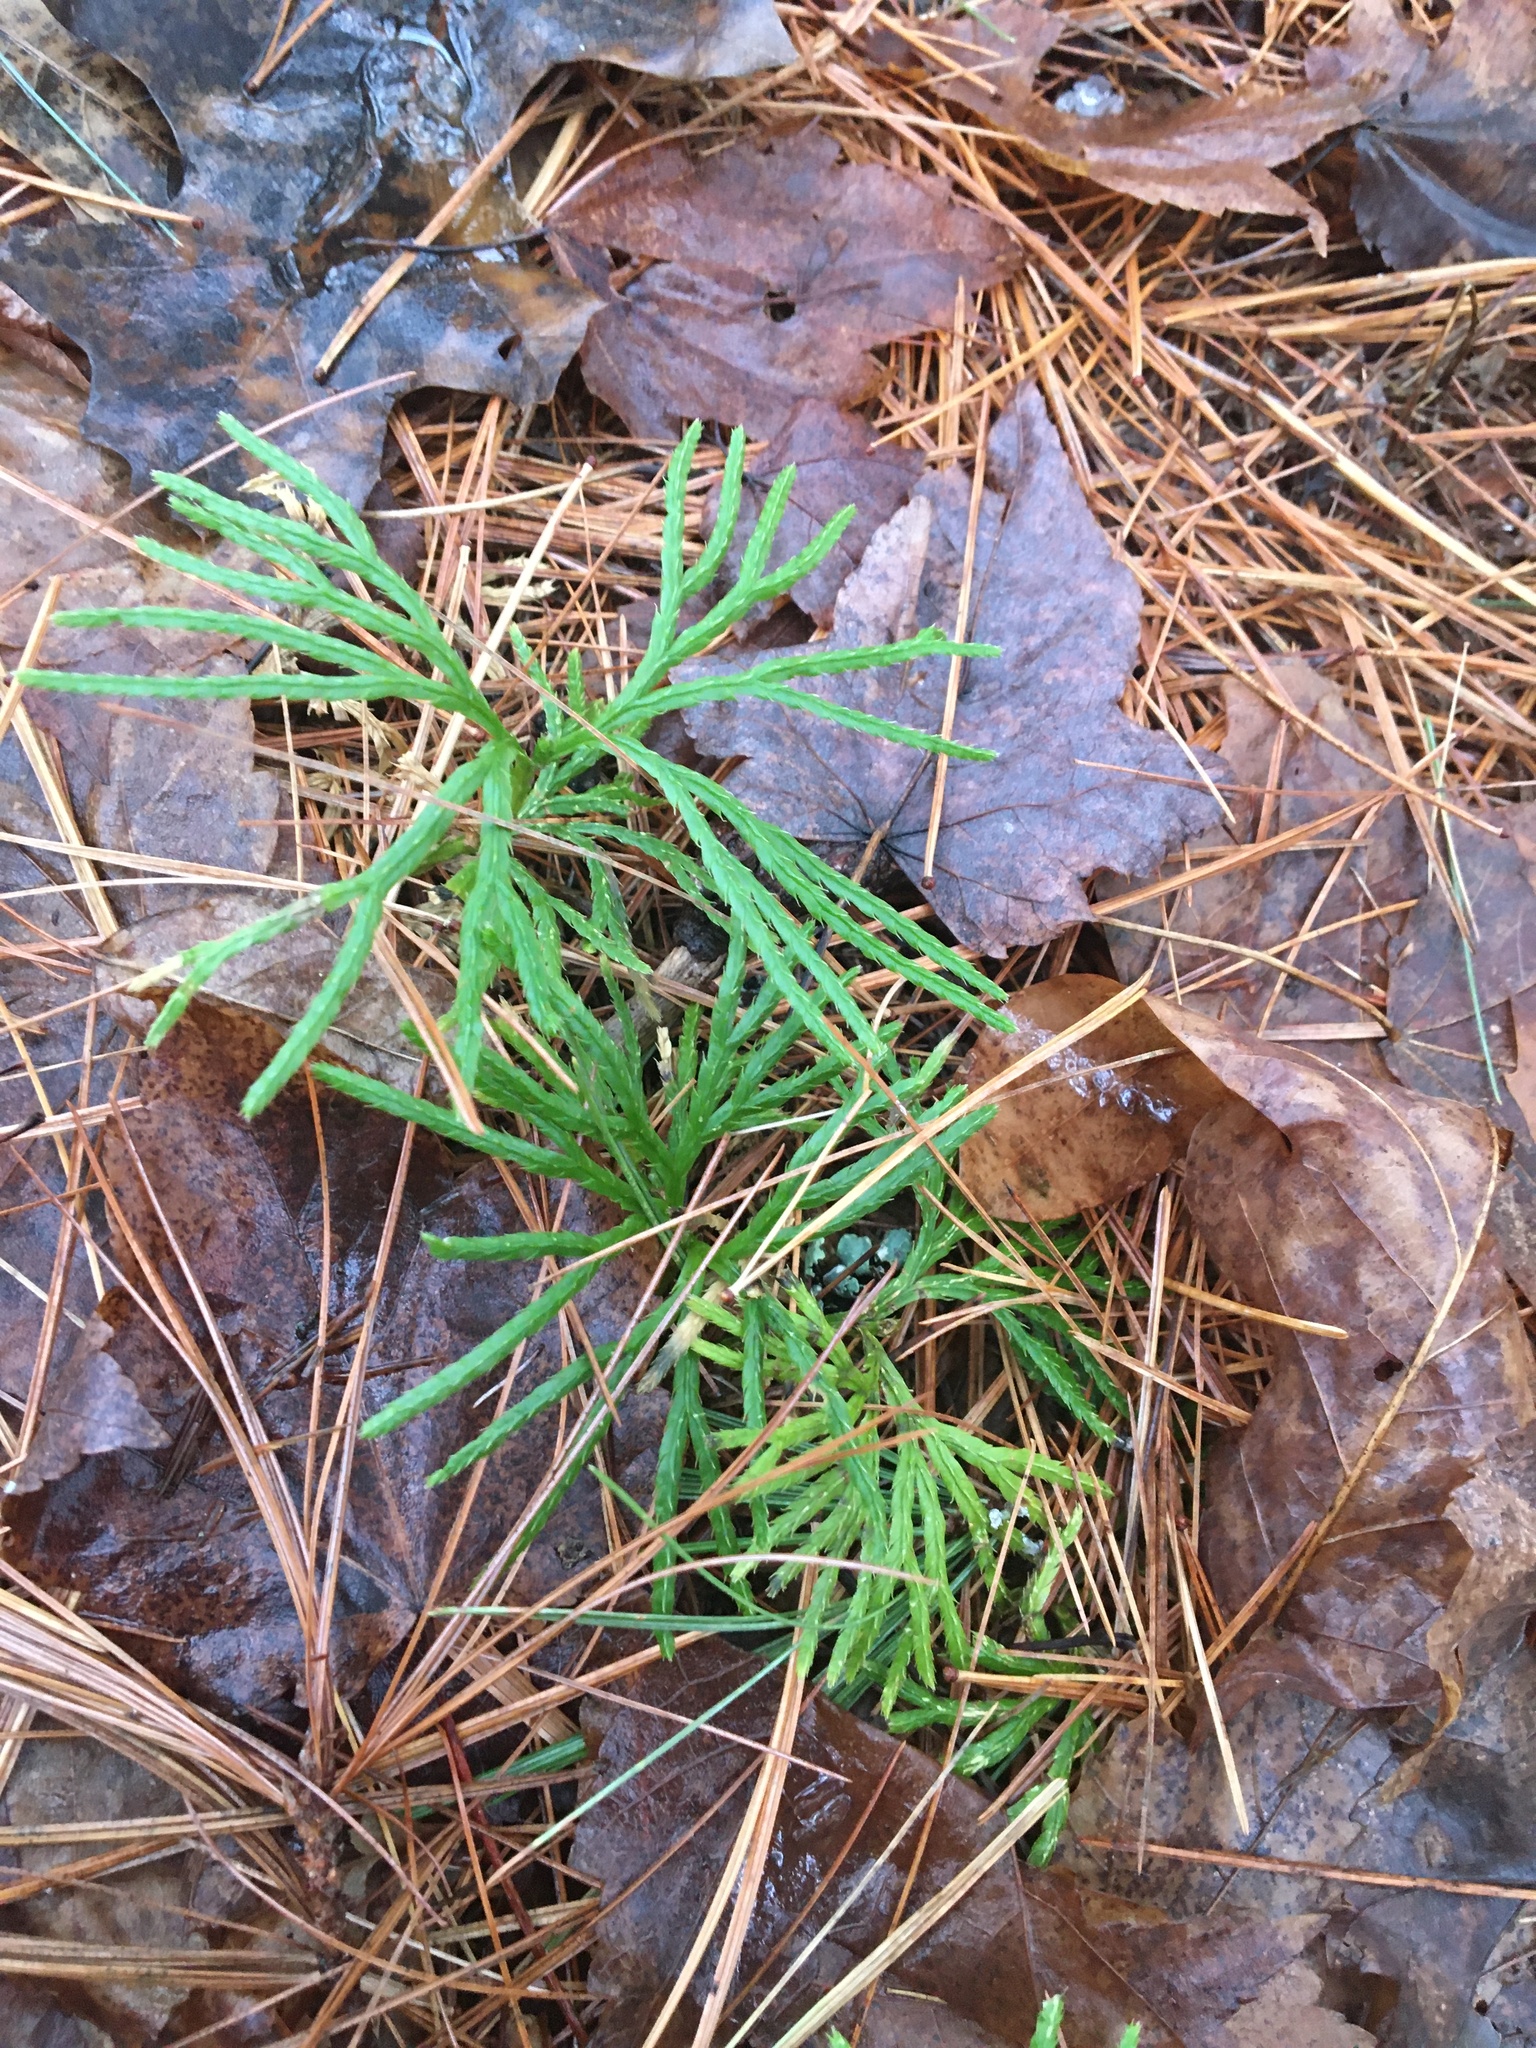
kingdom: Plantae
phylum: Tracheophyta
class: Lycopodiopsida
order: Lycopodiales
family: Lycopodiaceae
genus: Diphasiastrum
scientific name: Diphasiastrum digitatum
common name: Southern running-pine
